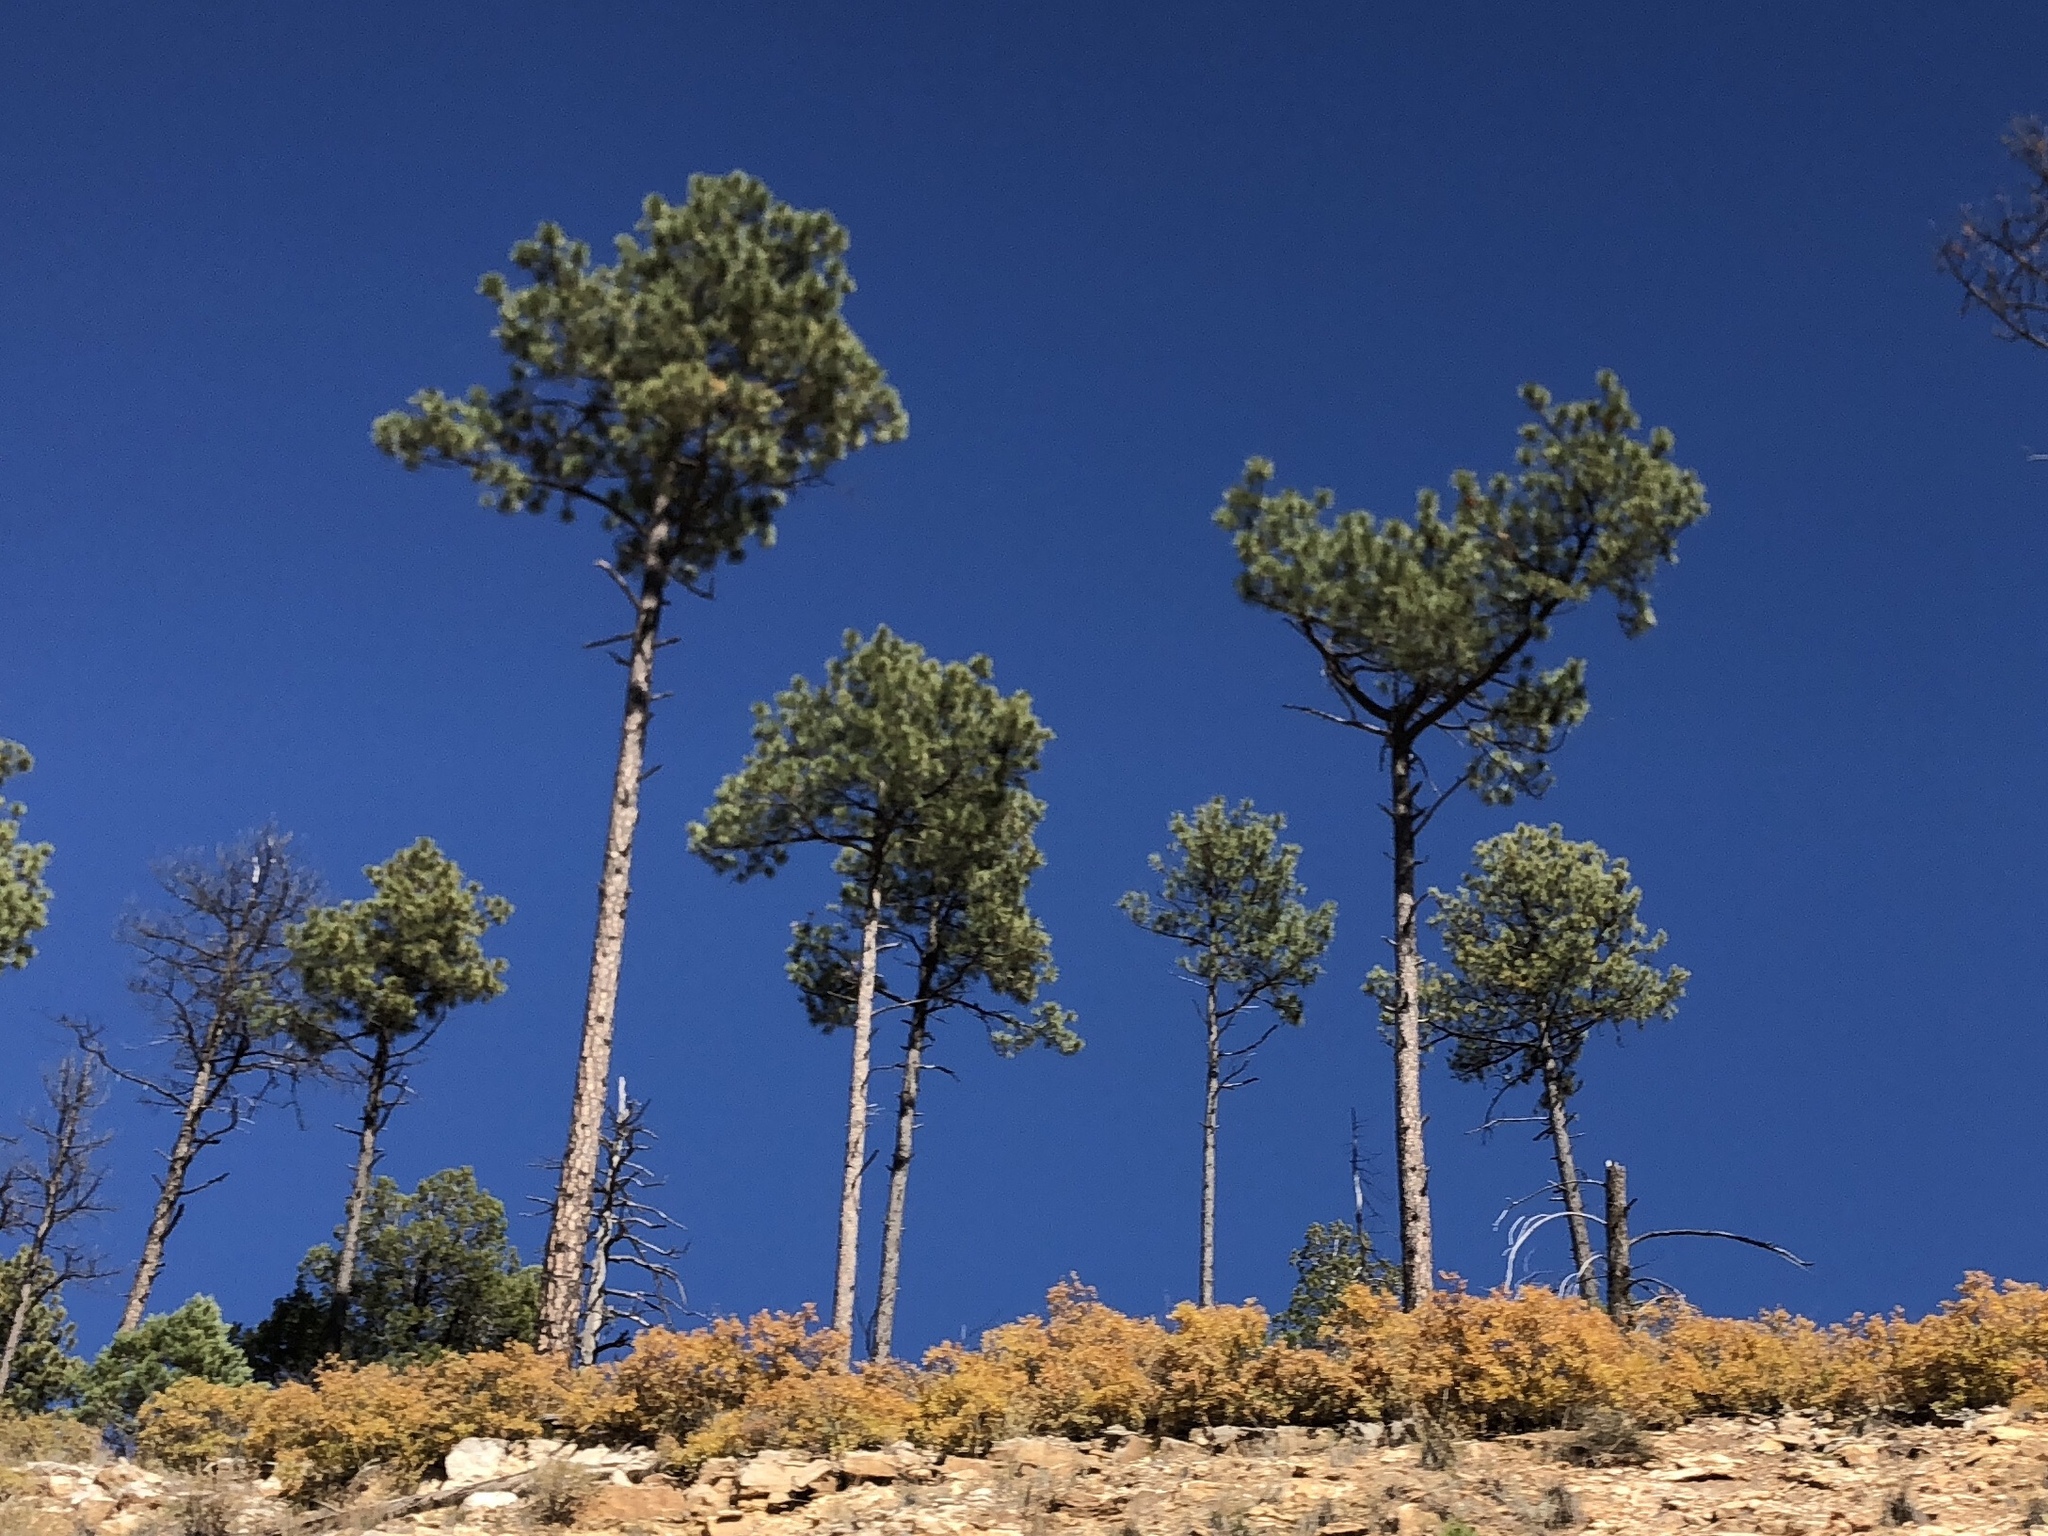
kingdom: Plantae
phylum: Tracheophyta
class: Pinopsida
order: Pinales
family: Pinaceae
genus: Pinus
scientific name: Pinus ponderosa
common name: Western yellow-pine
